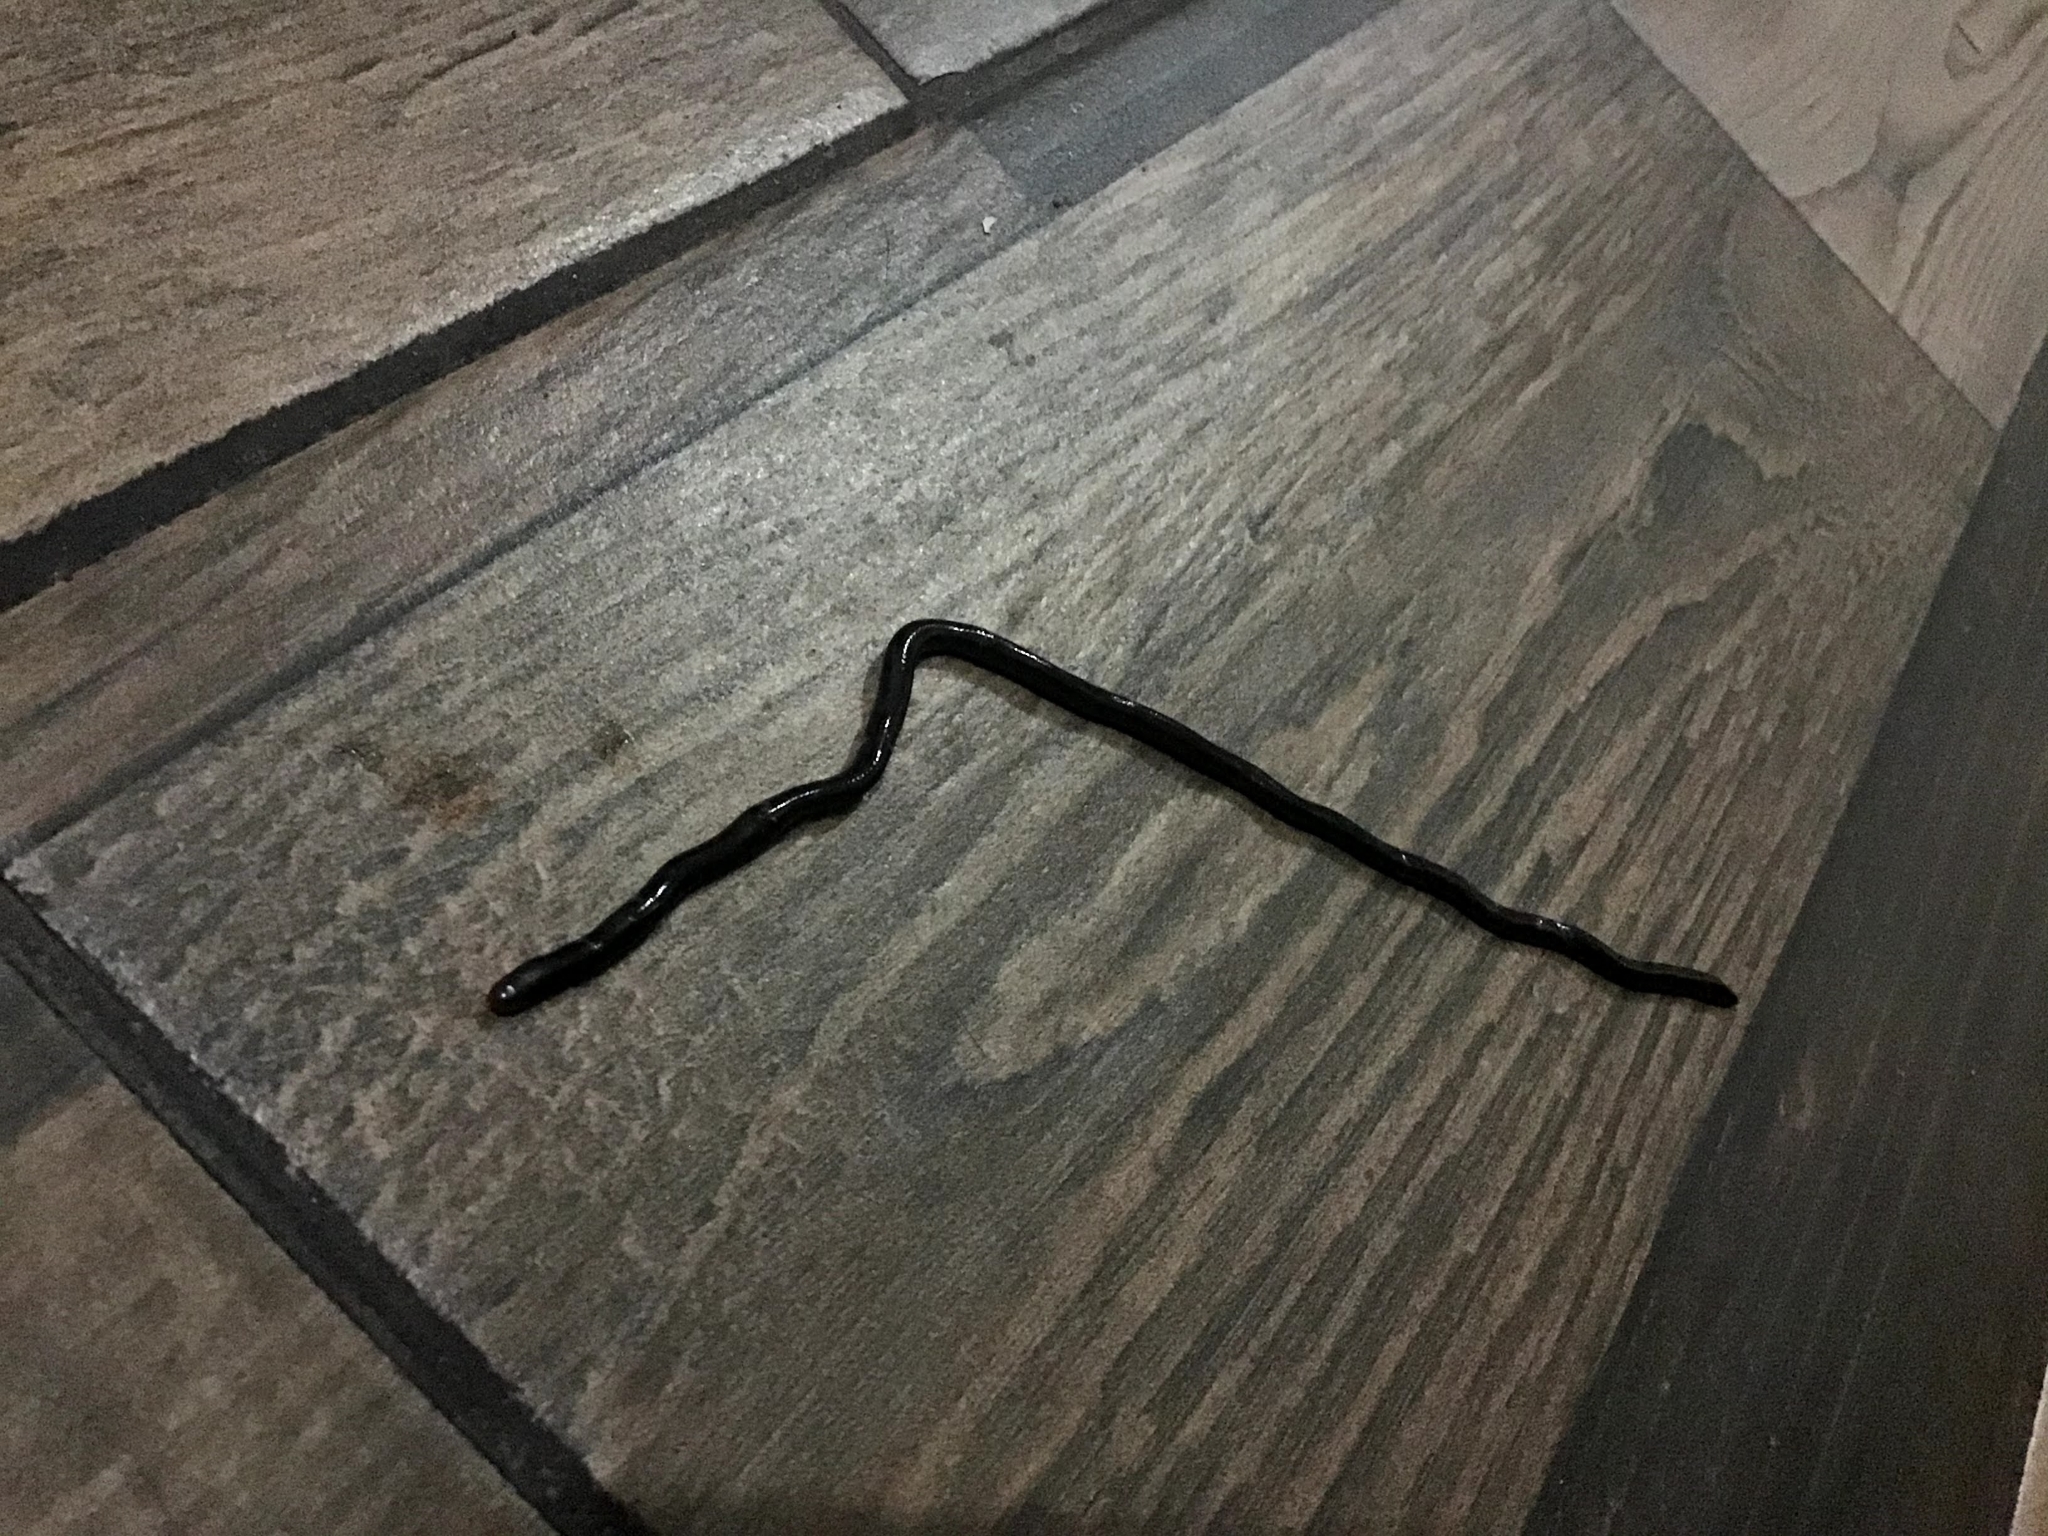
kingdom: Animalia
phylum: Chordata
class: Squamata
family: Typhlopidae
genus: Indotyphlops
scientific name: Indotyphlops braminus
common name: Brahminy blindsnake
